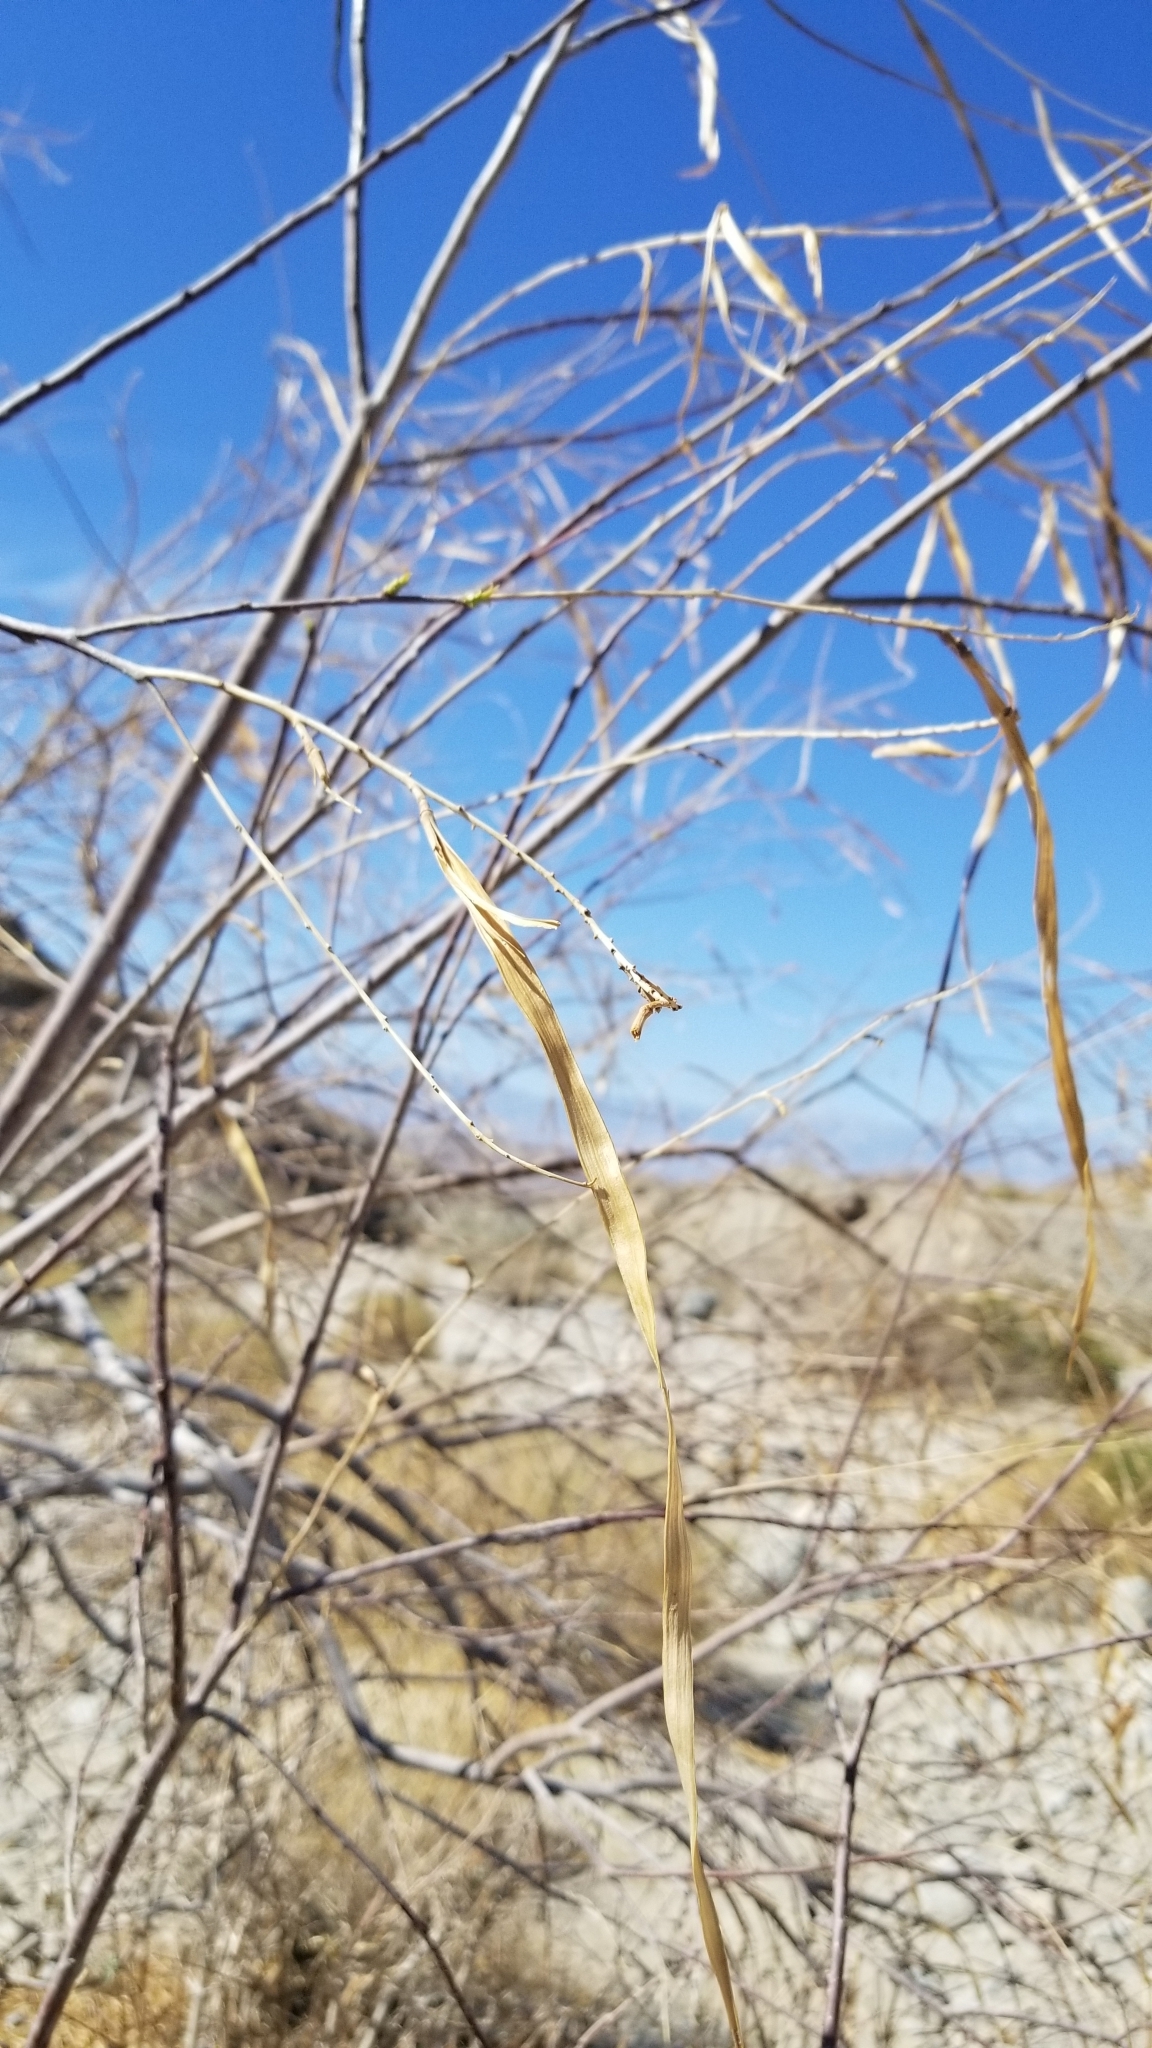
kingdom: Plantae
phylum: Tracheophyta
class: Magnoliopsida
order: Lamiales
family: Bignoniaceae
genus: Chilopsis
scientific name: Chilopsis linearis
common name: Desert-willow
